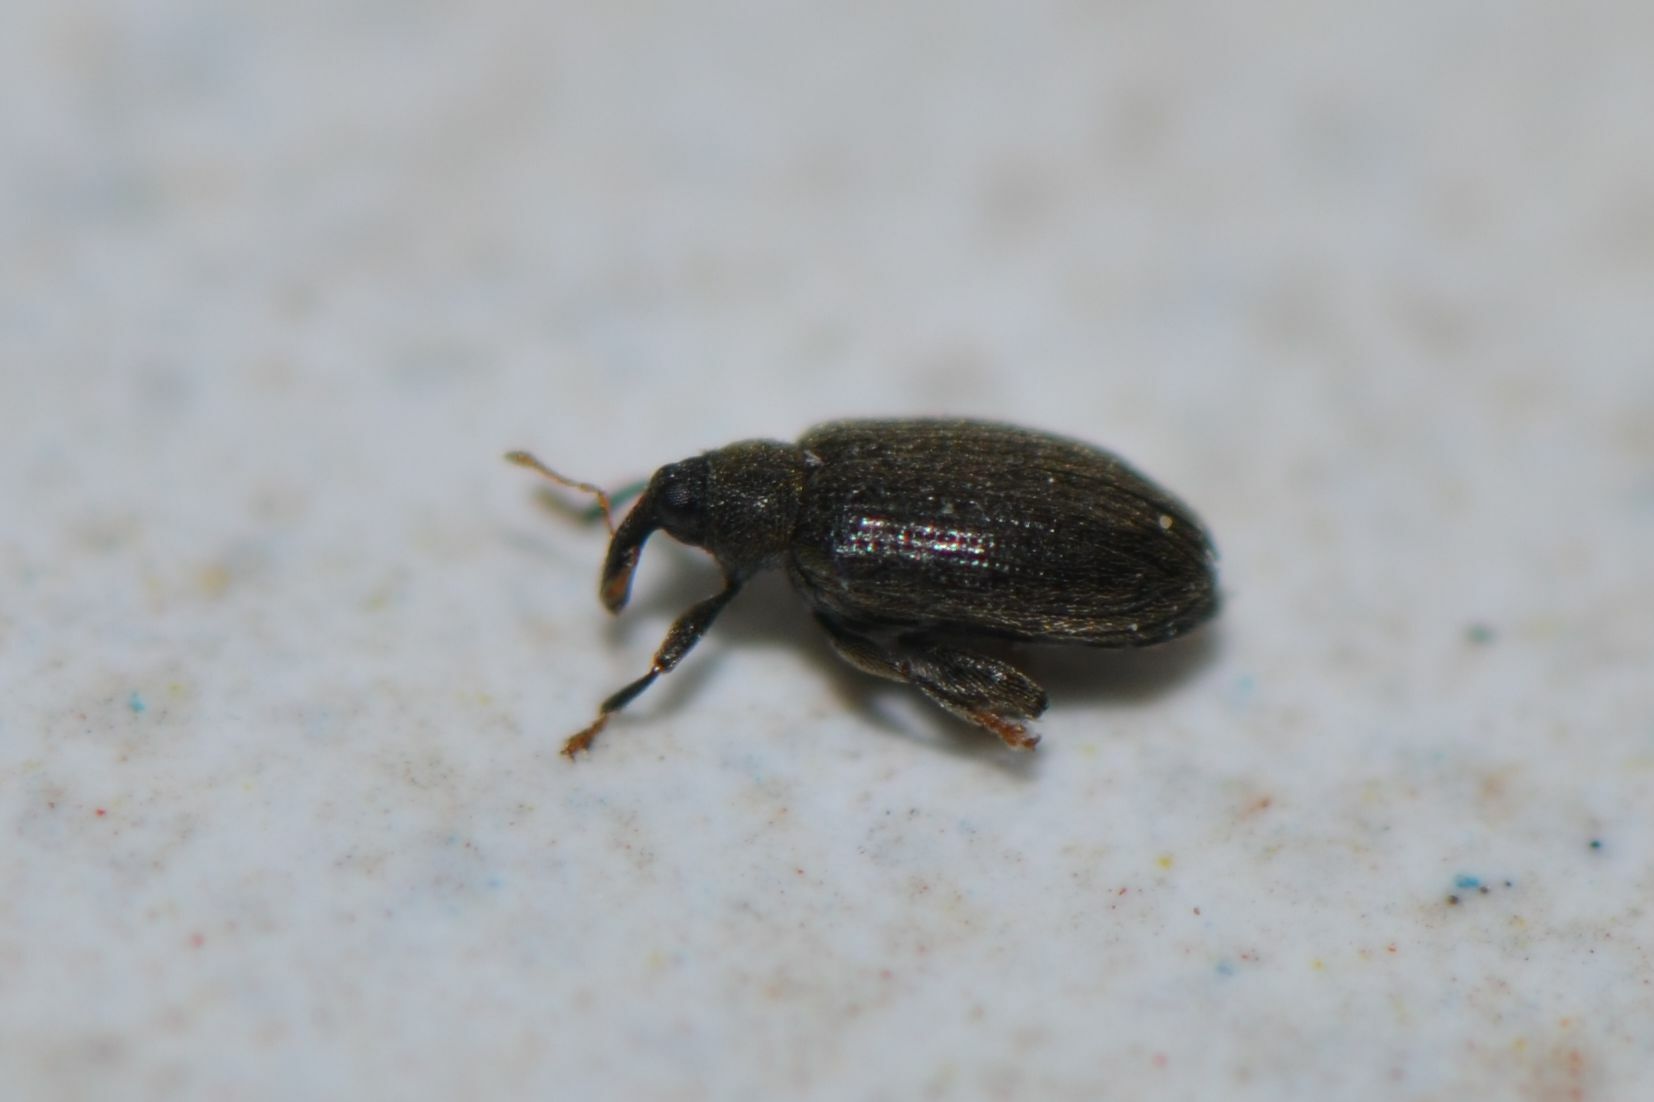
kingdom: Animalia
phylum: Arthropoda
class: Insecta
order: Coleoptera
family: Curculionidae
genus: Orchestes
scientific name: Orchestes fagi
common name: Beech leaf miner
